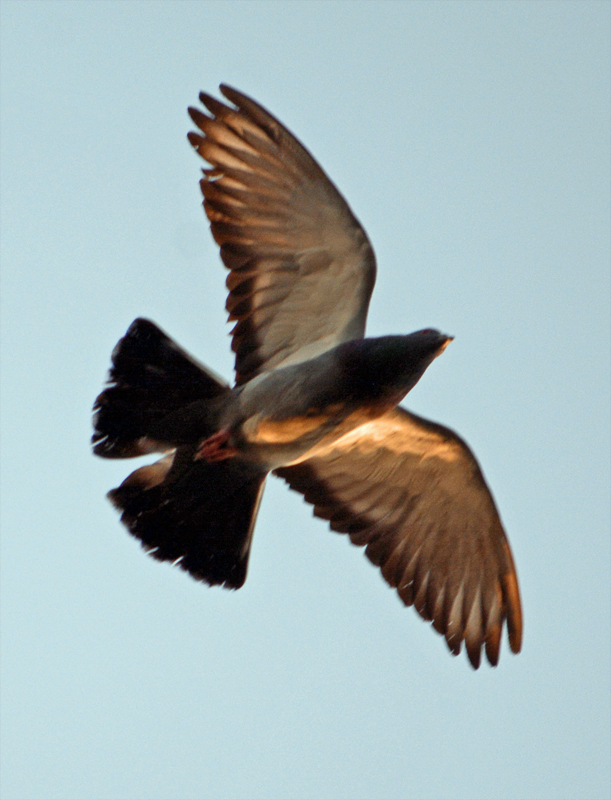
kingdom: Animalia
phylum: Chordata
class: Aves
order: Columbiformes
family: Columbidae
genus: Columba
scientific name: Columba livia
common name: Rock pigeon
